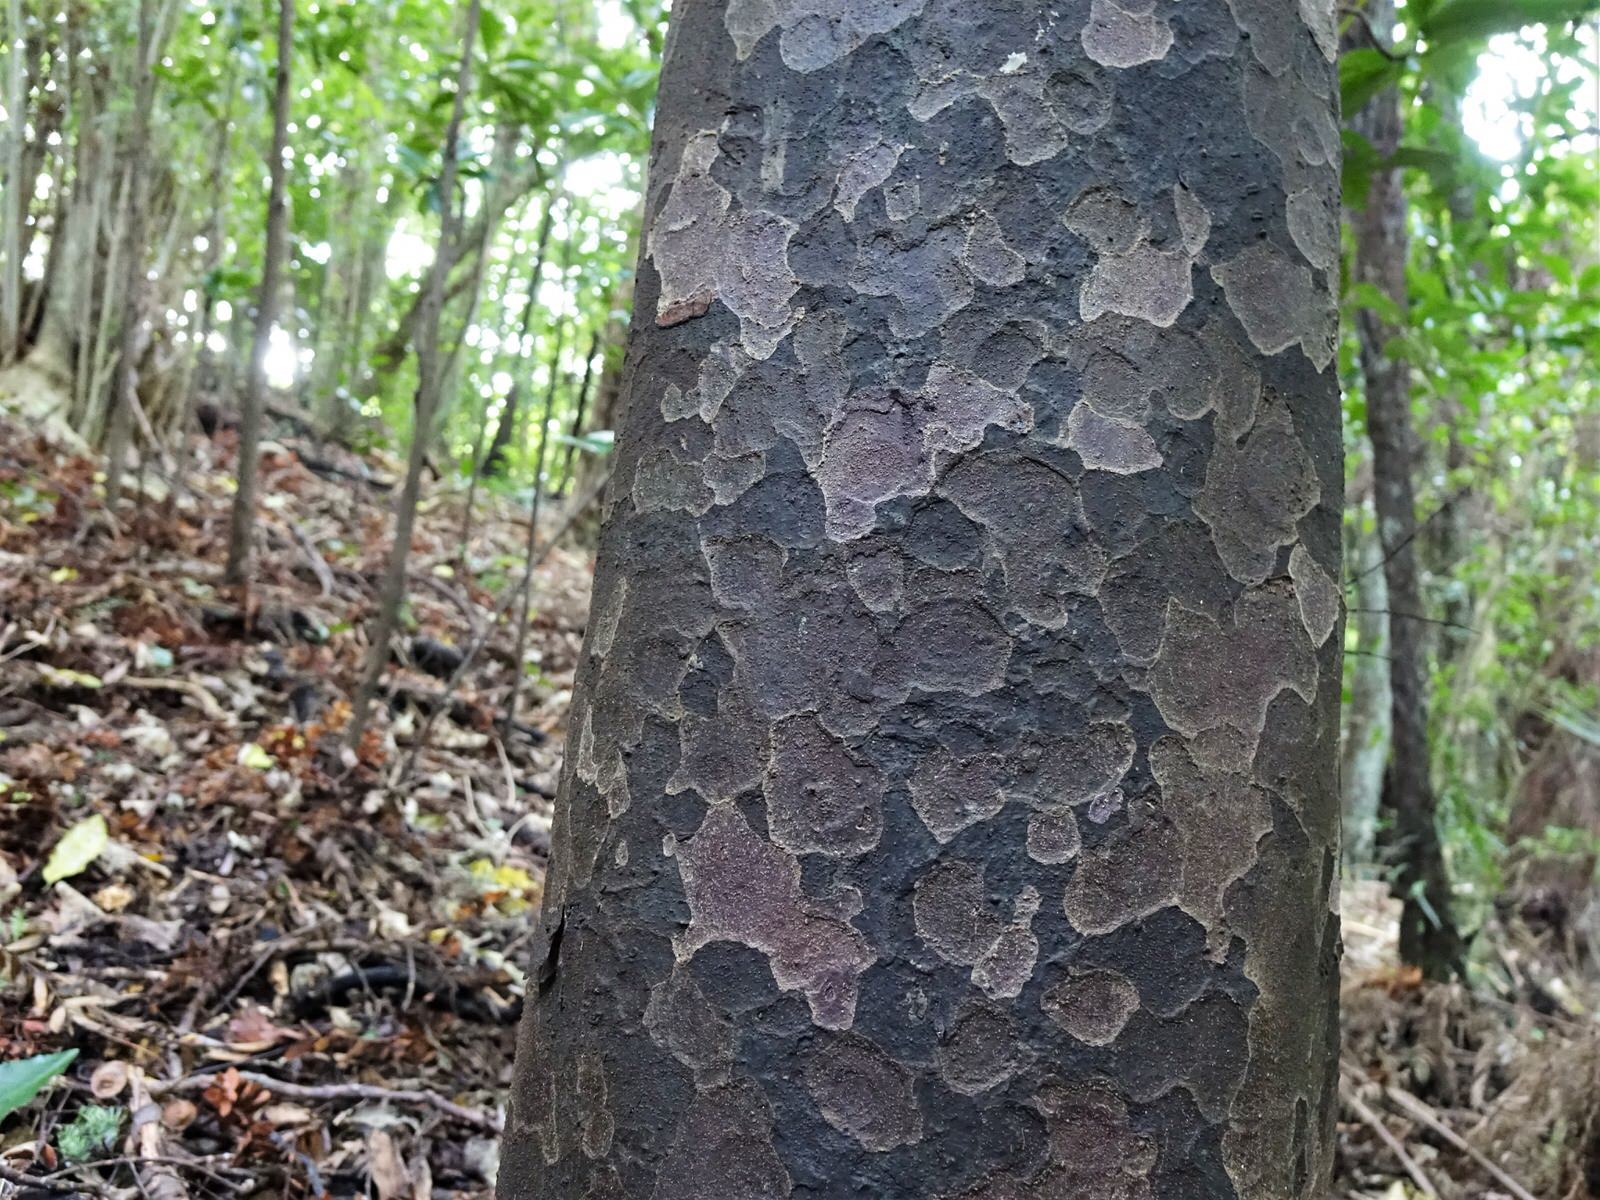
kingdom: Plantae
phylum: Tracheophyta
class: Pinopsida
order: Pinales
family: Podocarpaceae
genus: Prumnopitys
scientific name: Prumnopitys taxifolia
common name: Matai
